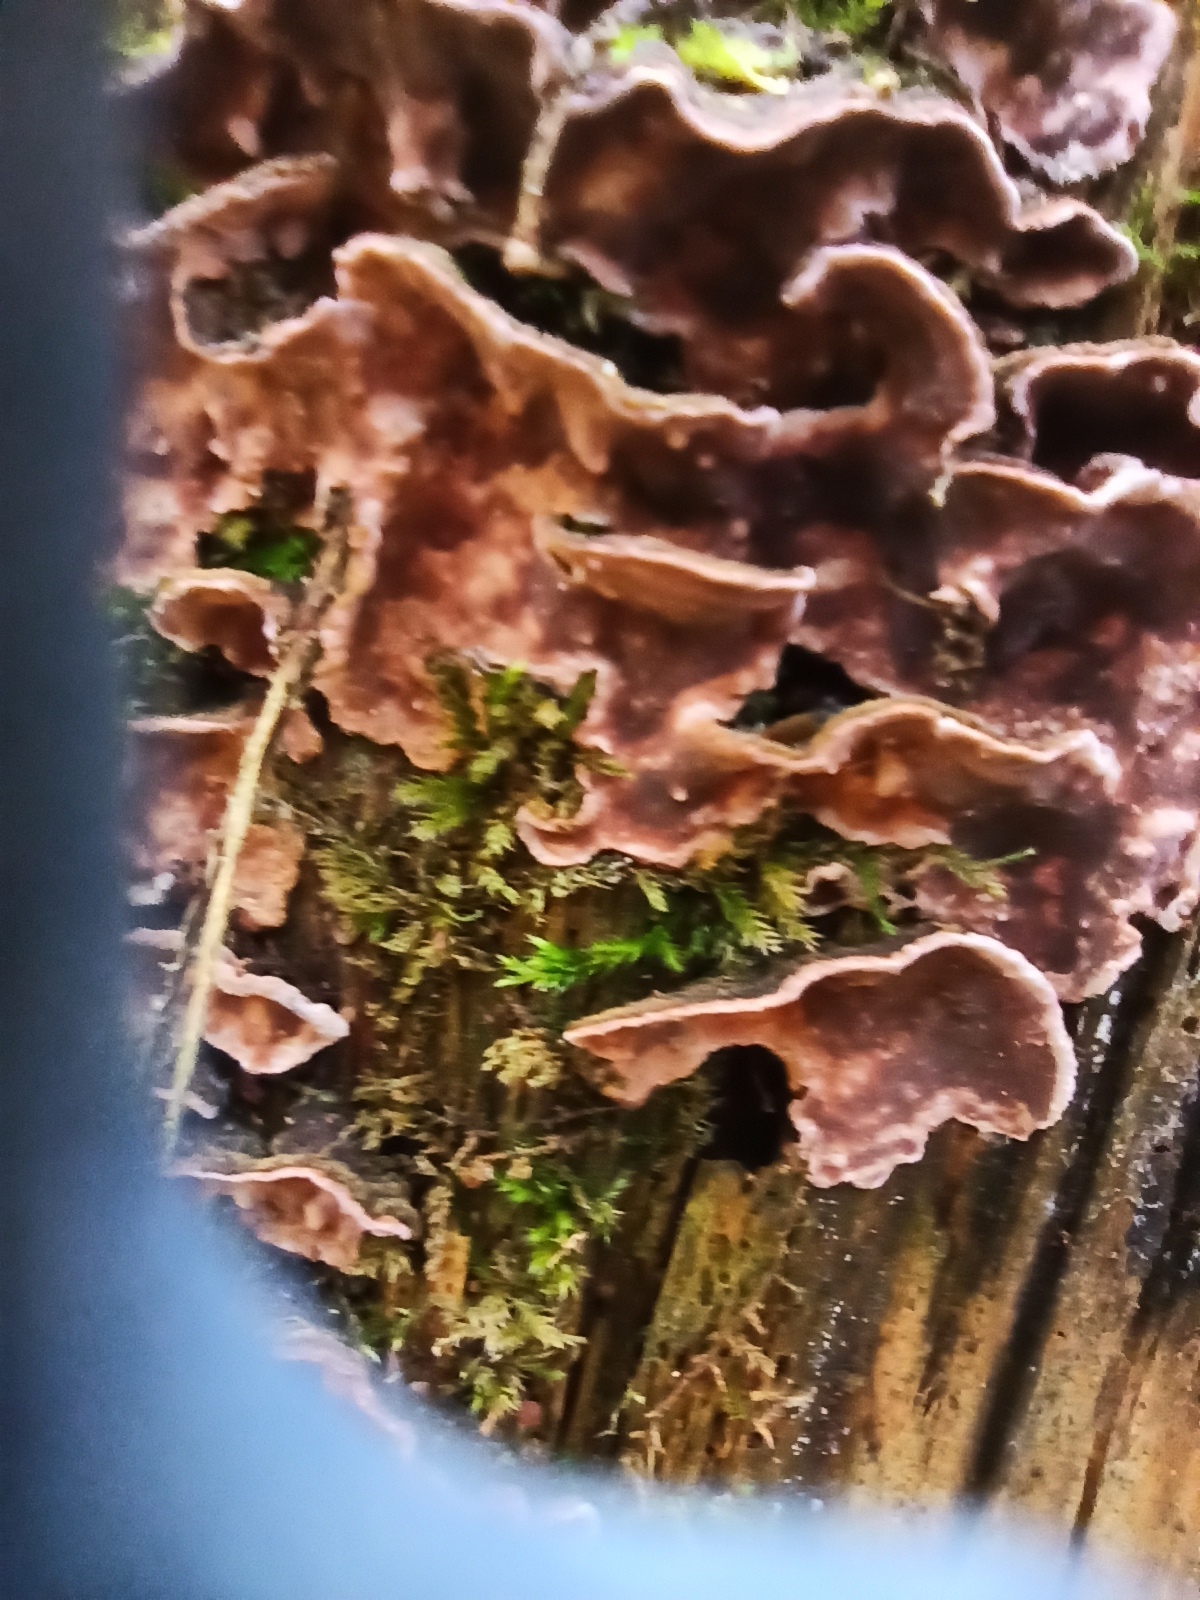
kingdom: Fungi
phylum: Basidiomycota
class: Agaricomycetes
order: Hymenochaetales
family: Hymenochaetaceae
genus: Hymenochaete
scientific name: Hymenochaete rubiginosa
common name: Oak curtain crust
